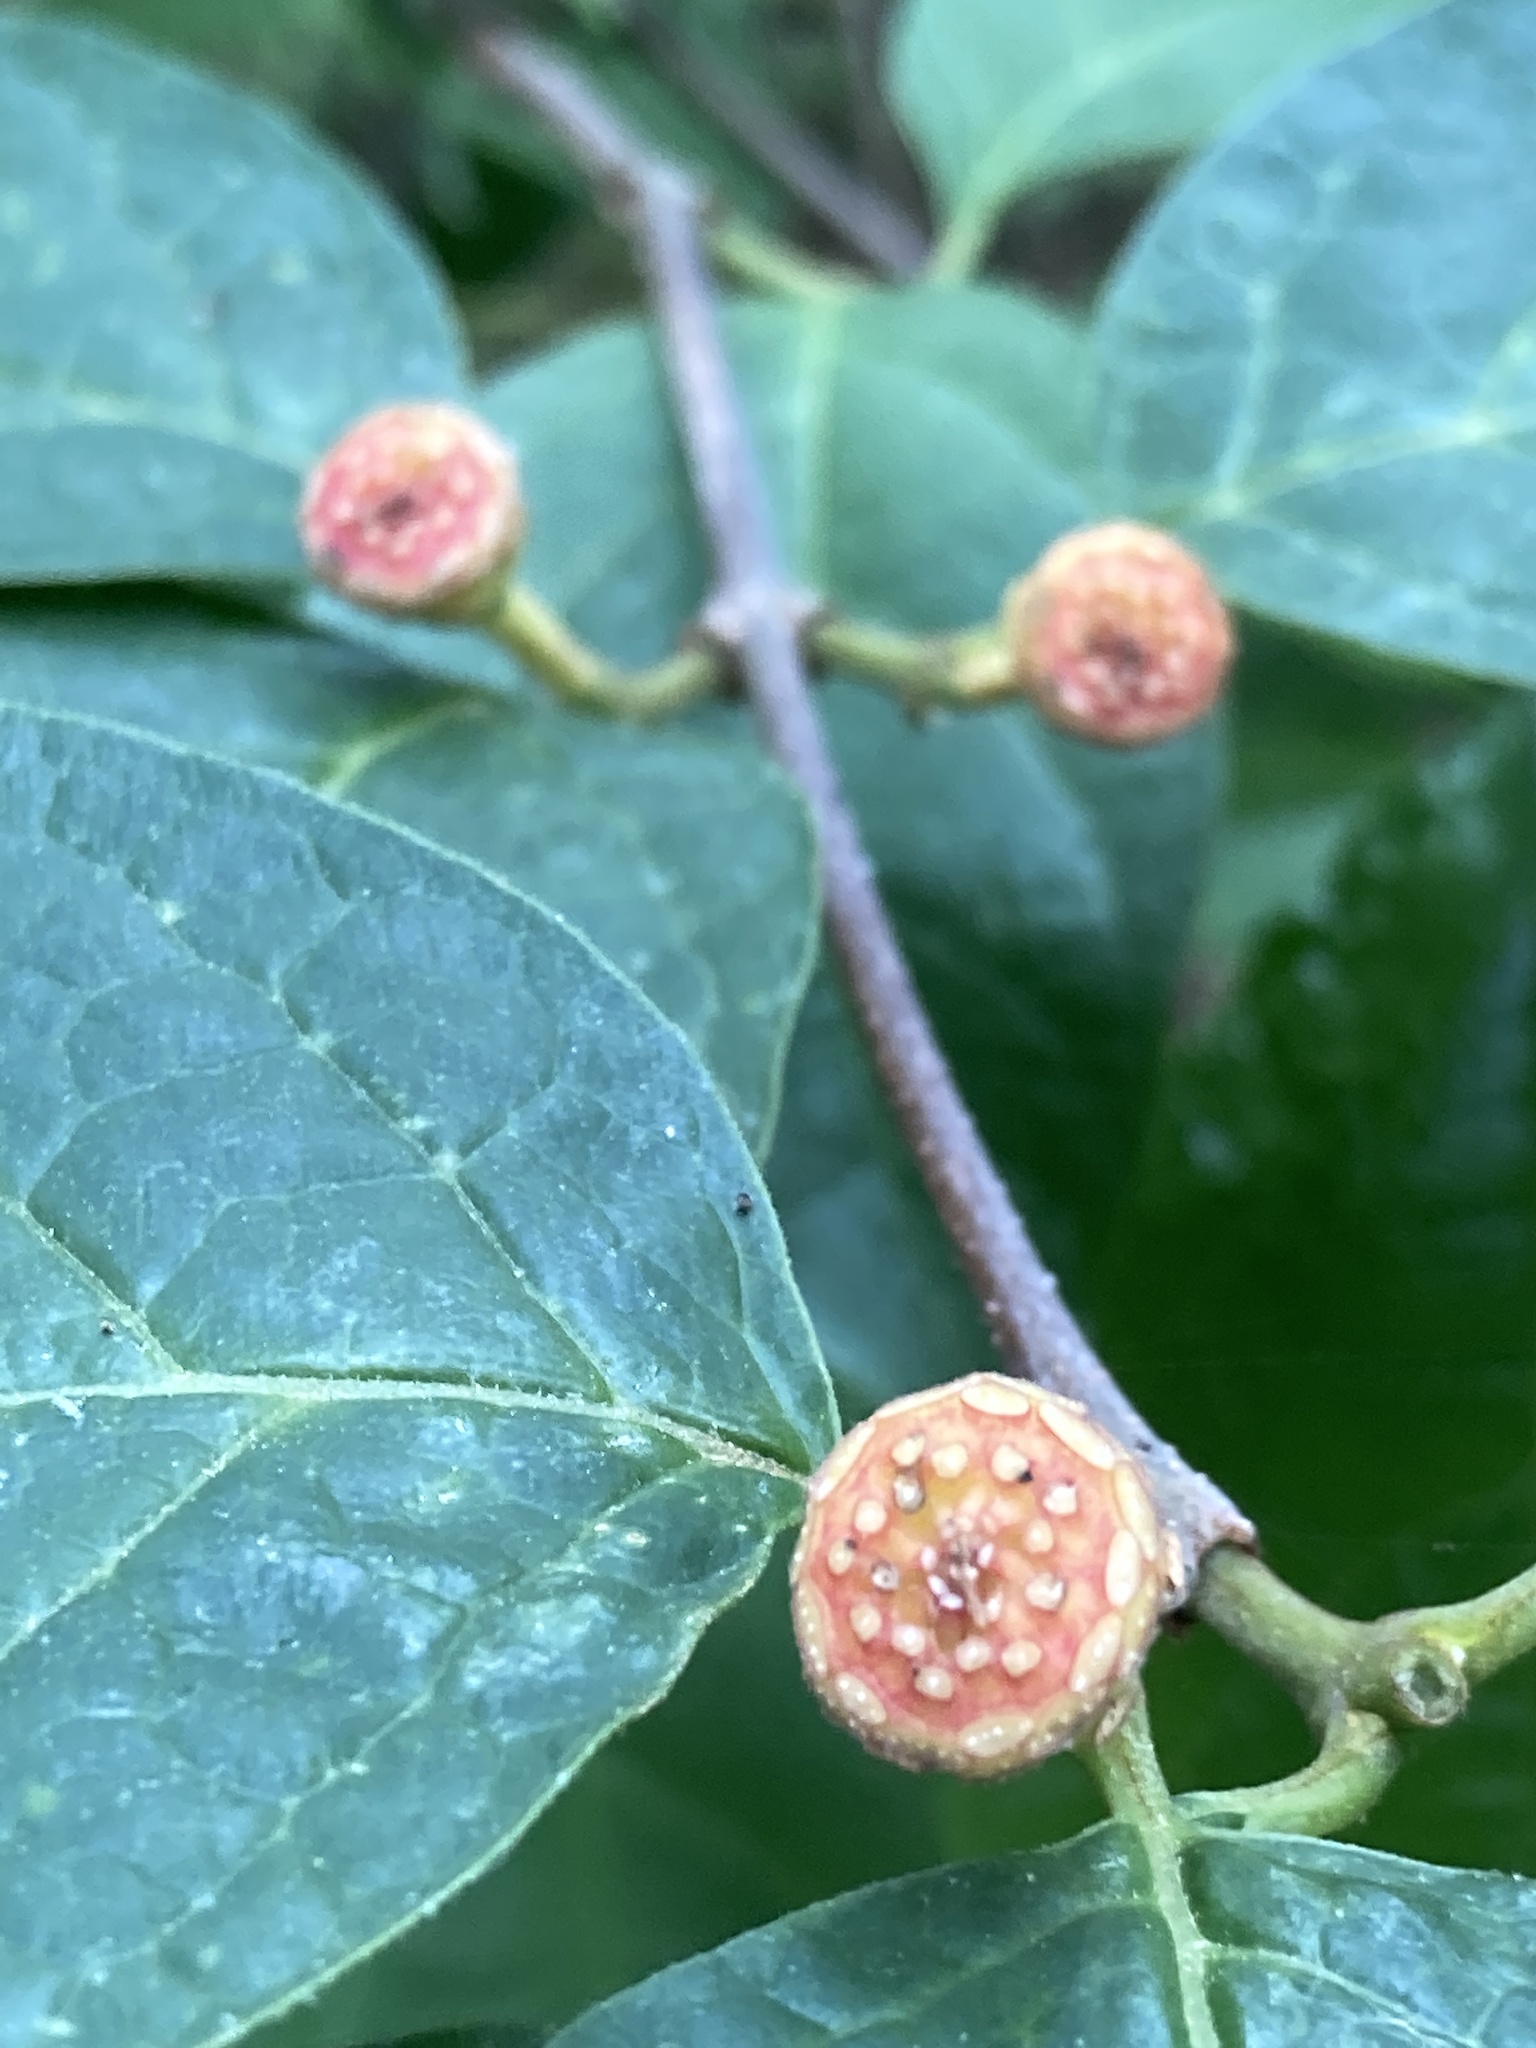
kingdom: Plantae
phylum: Tracheophyta
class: Magnoliopsida
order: Laurales
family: Calycanthaceae
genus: Calycanthus
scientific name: Calycanthus floridus
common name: Carolina-allspice
